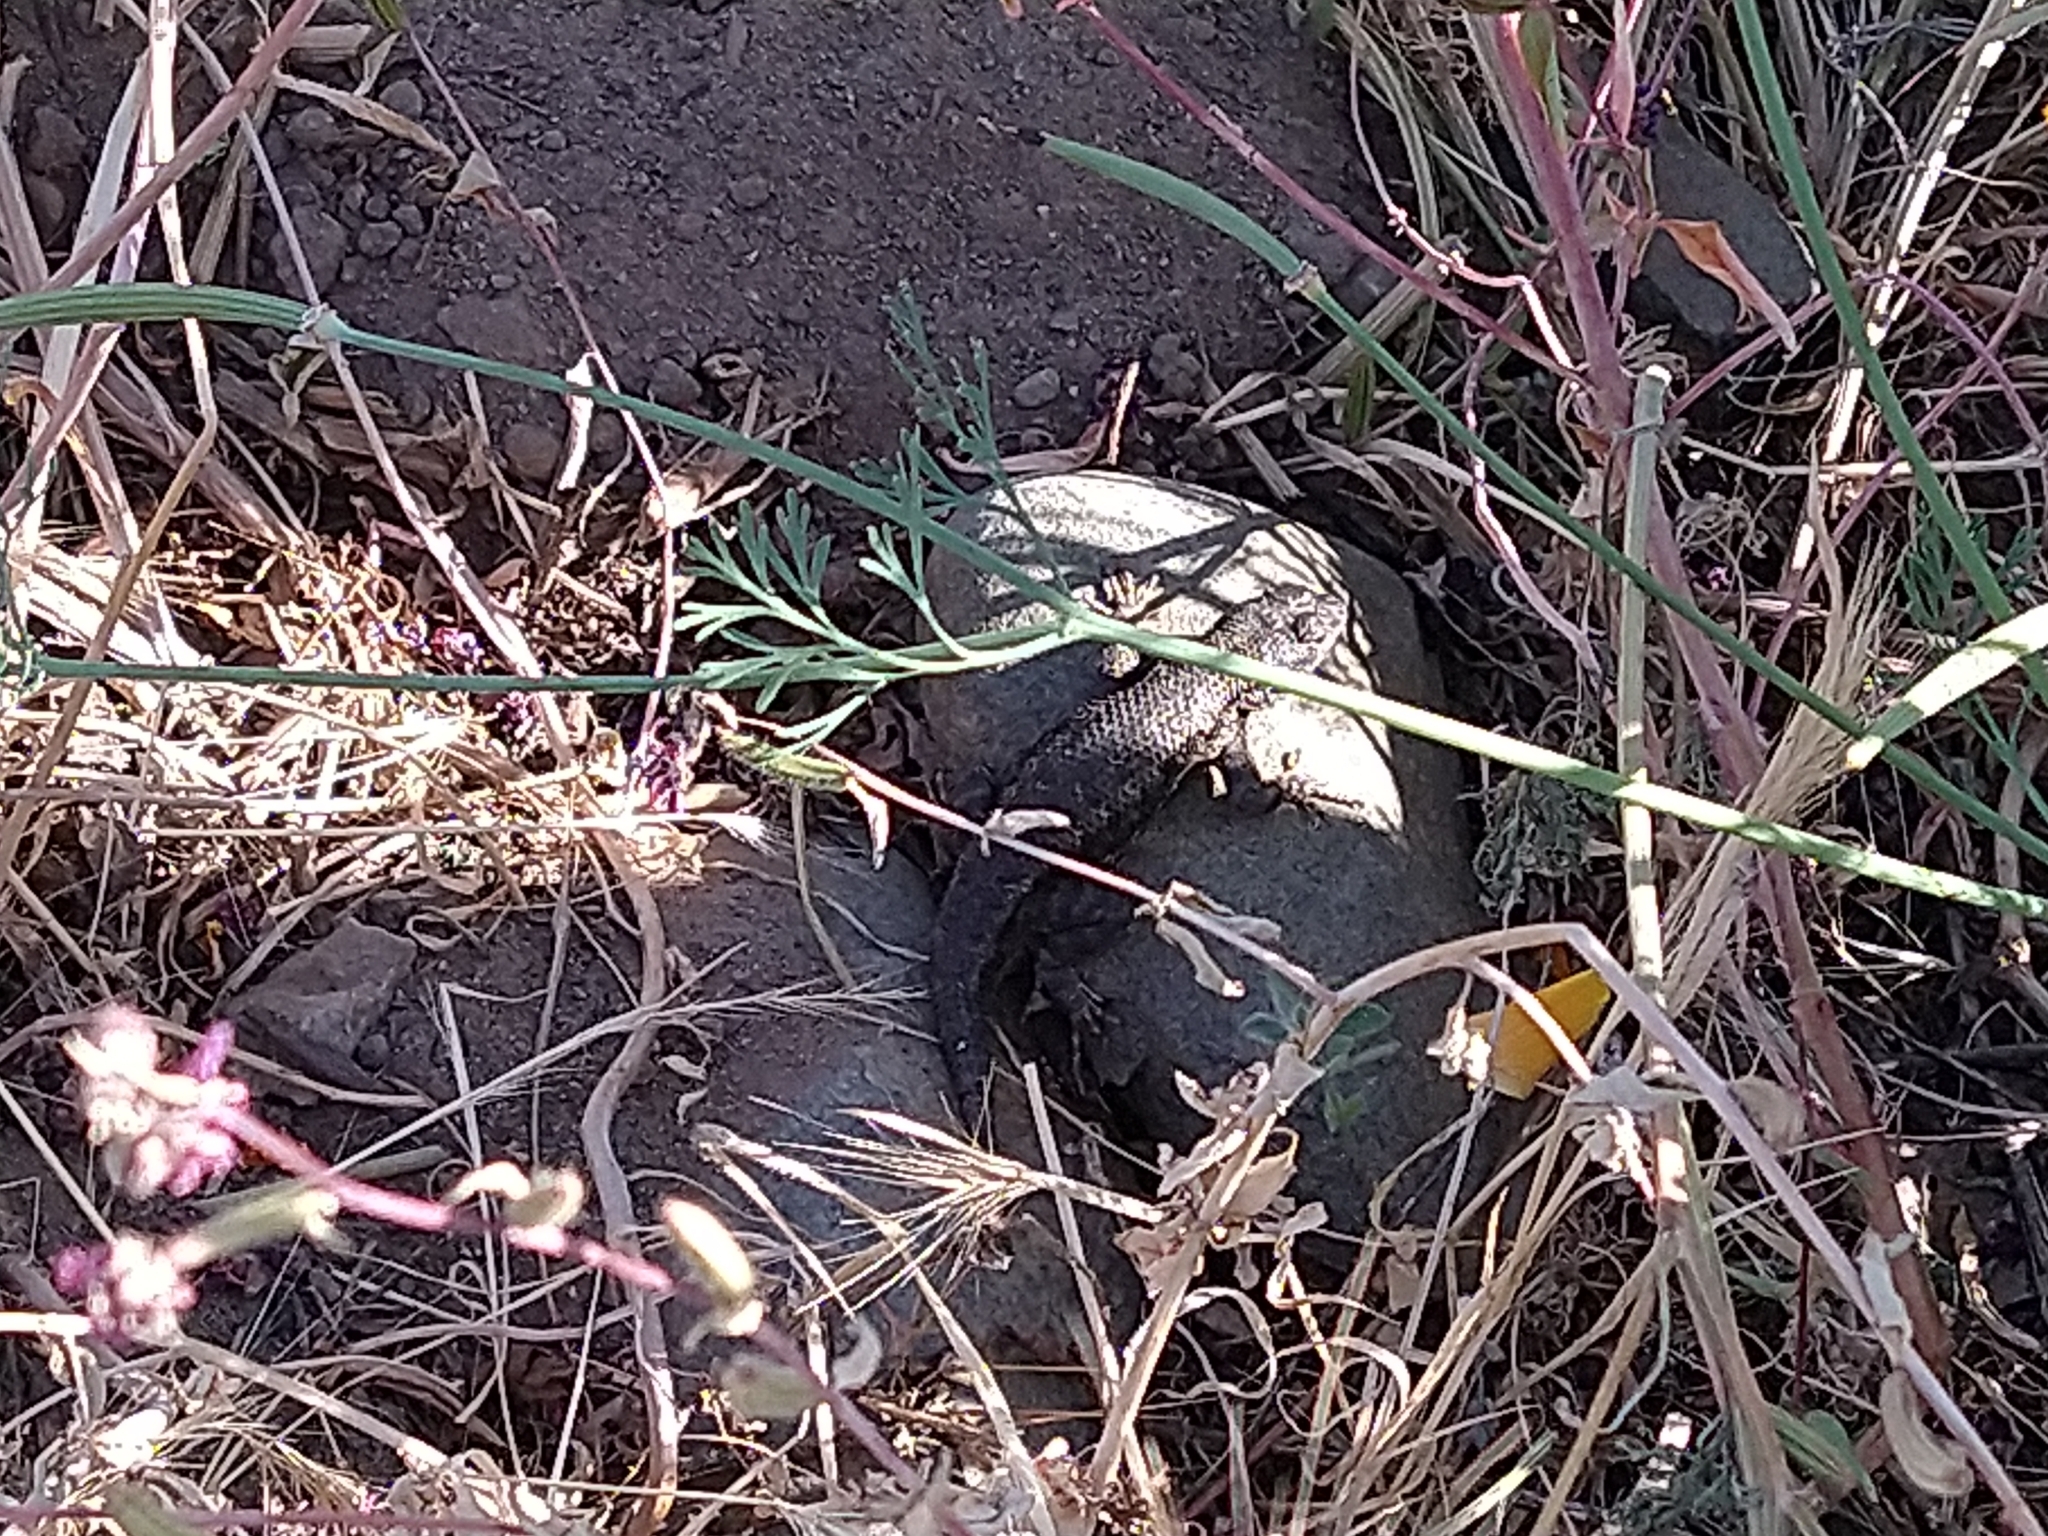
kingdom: Animalia
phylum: Chordata
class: Squamata
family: Phrynosomatidae
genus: Sceloporus
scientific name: Sceloporus occidentalis
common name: Western fence lizard
